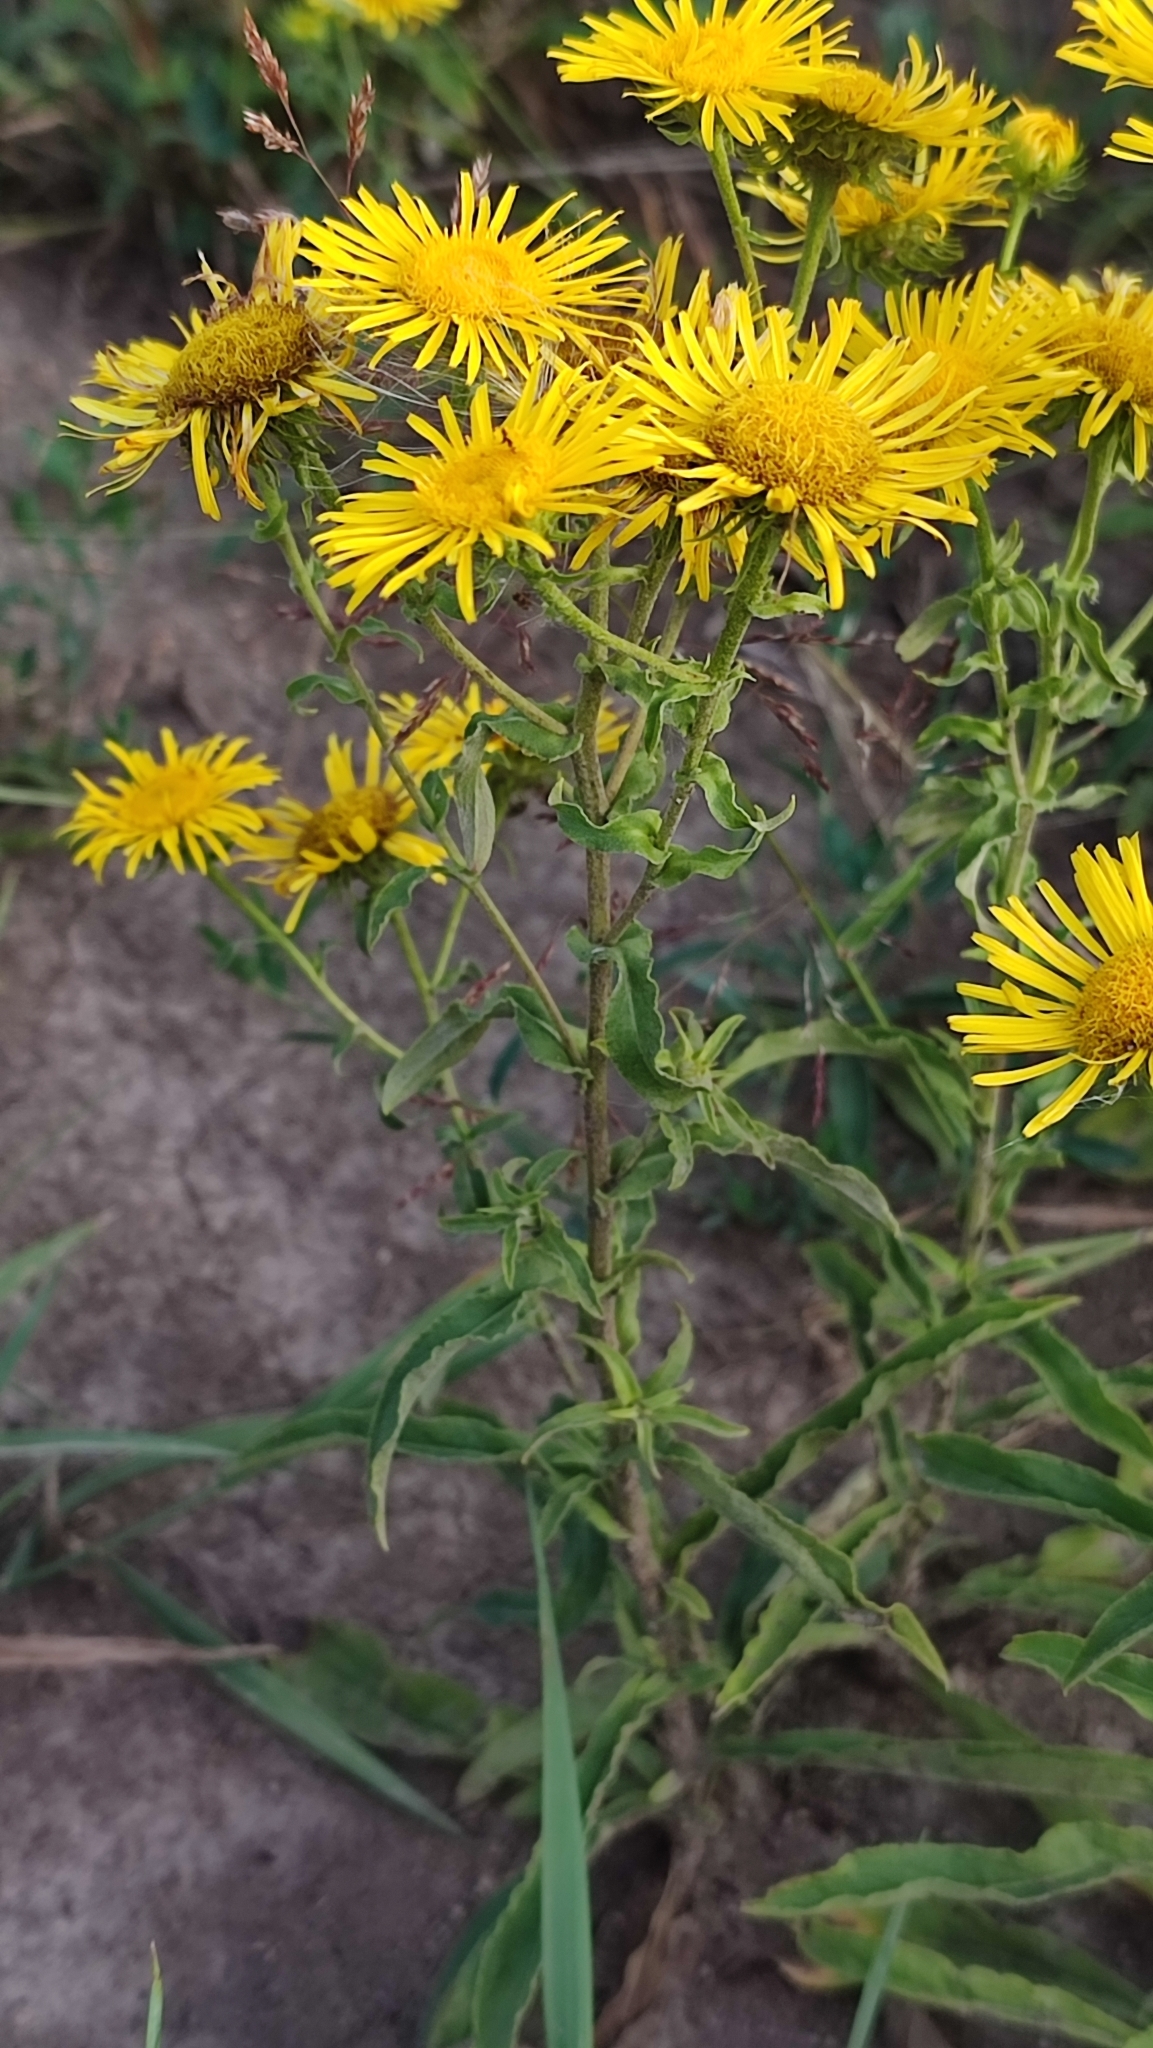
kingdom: Plantae
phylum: Tracheophyta
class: Magnoliopsida
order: Asterales
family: Asteraceae
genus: Pentanema
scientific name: Pentanema britannicum
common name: British elecampane
